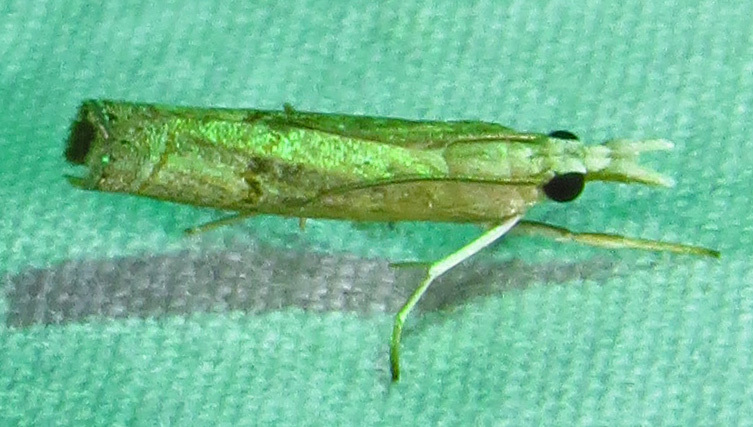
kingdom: Animalia
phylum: Arthropoda
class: Insecta
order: Lepidoptera
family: Crambidae
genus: Parapediasia
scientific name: Parapediasia teterellus
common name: Bluegrass webworm moth
